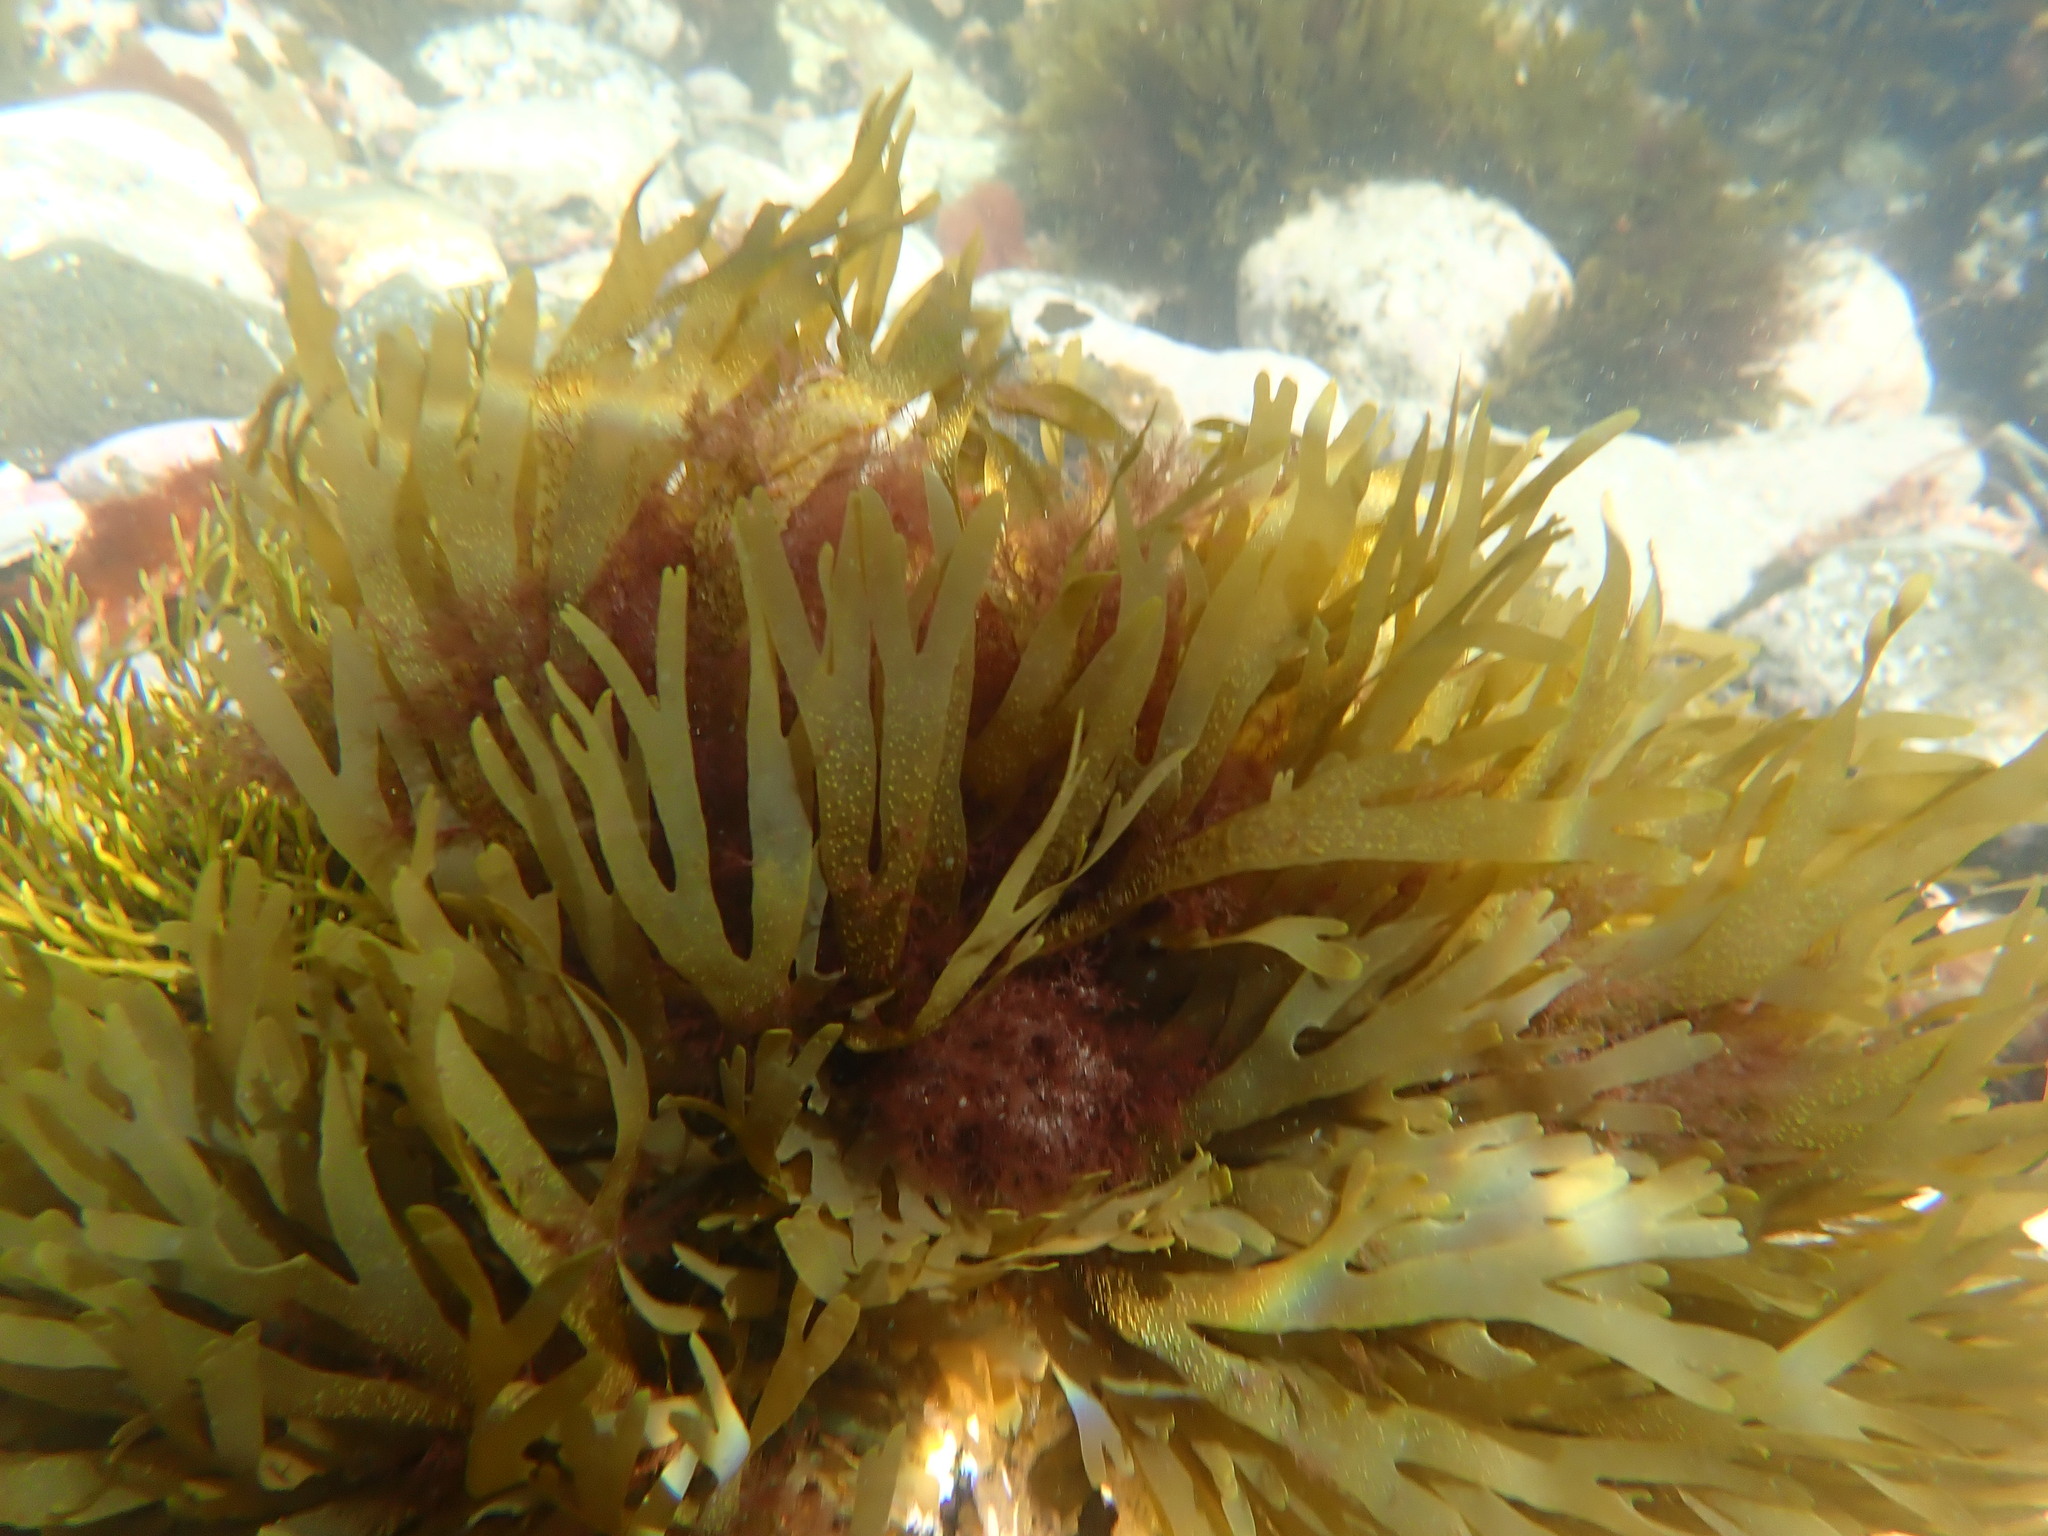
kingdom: Chromista
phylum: Ochrophyta
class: Phaeophyceae
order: Dictyotales
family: Dictyotaceae
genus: Dictyota
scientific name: Dictyota kunthii
